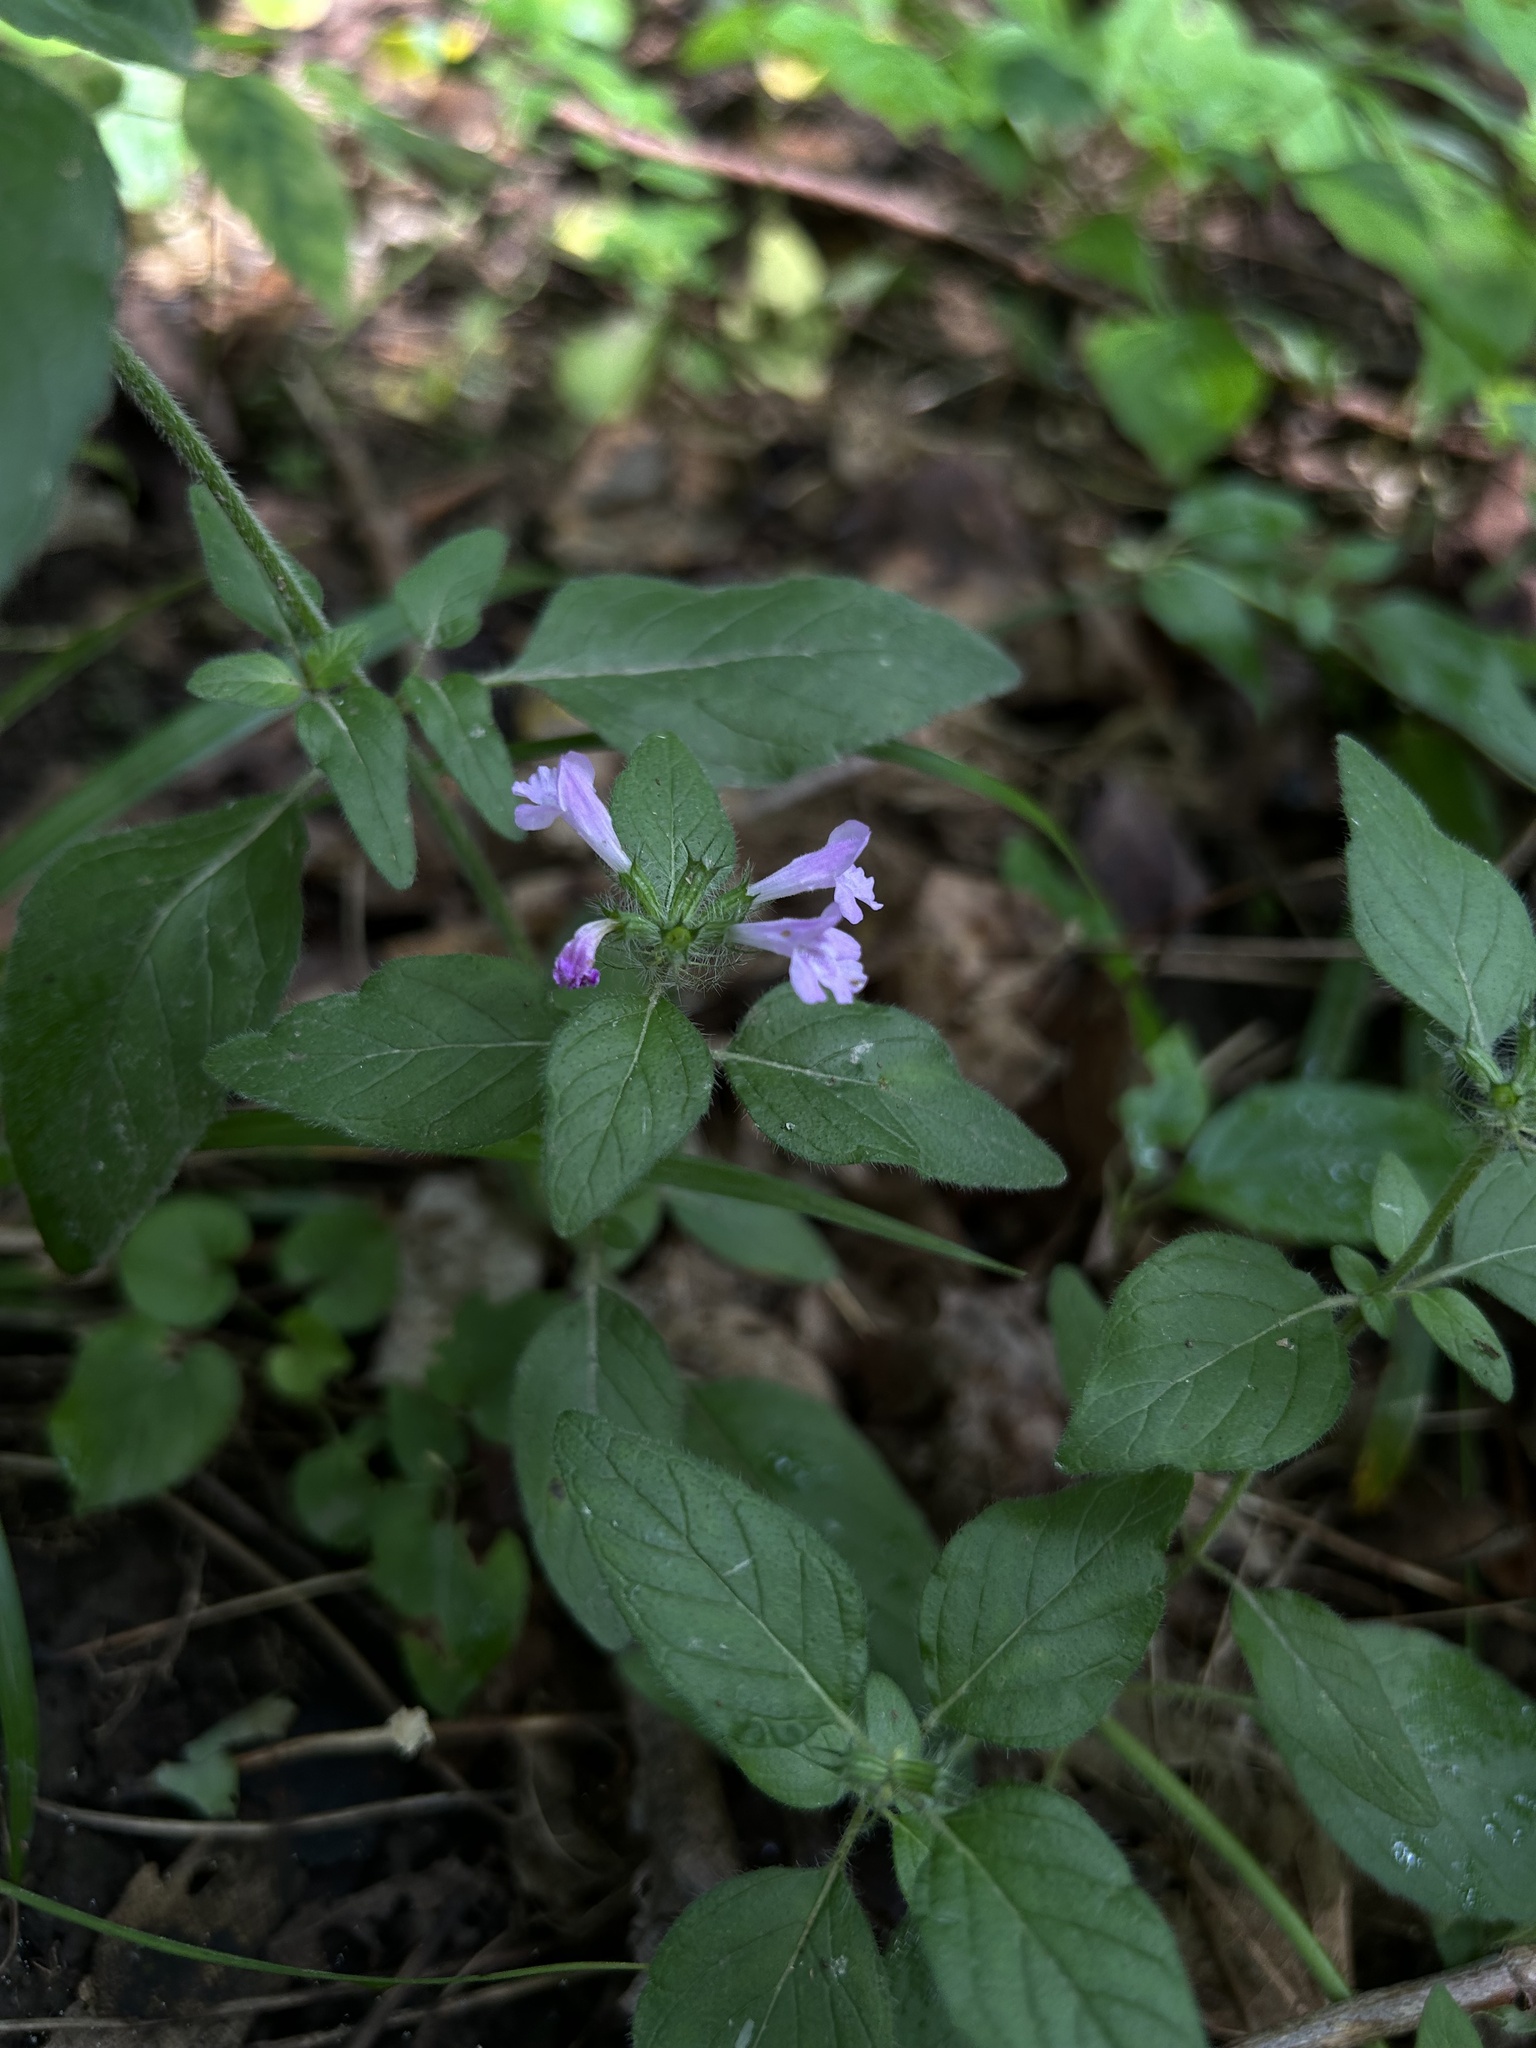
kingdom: Plantae
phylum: Tracheophyta
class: Magnoliopsida
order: Lamiales
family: Lamiaceae
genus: Clinopodium
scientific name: Clinopodium vulgare
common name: Wild basil
